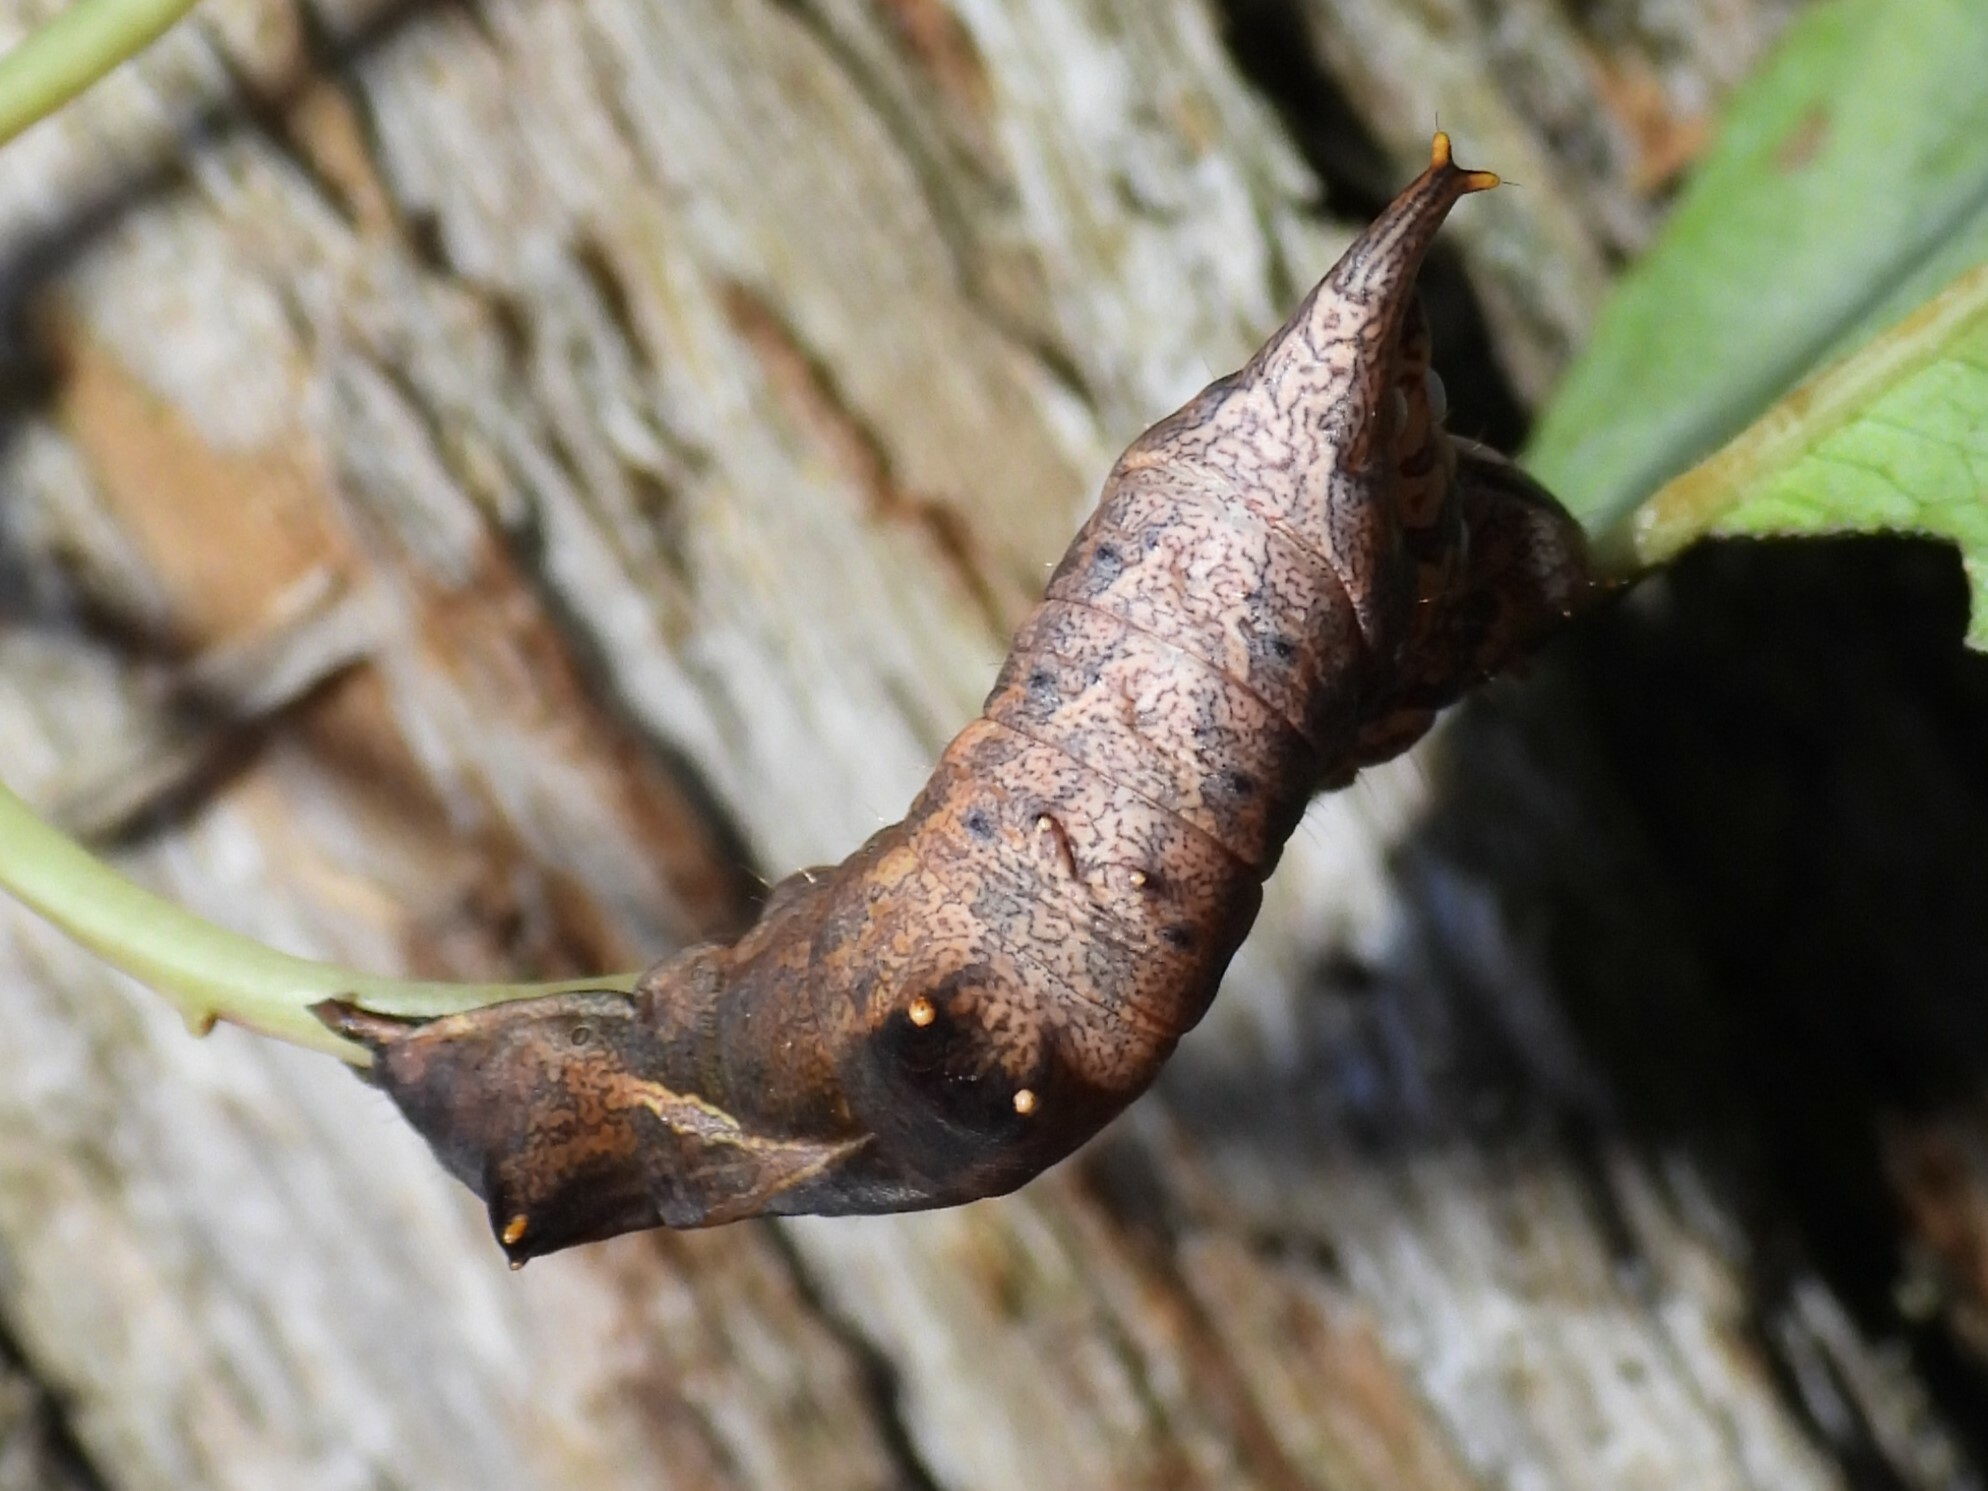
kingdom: Animalia
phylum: Arthropoda
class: Insecta
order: Lepidoptera
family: Notodontidae
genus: Schizura
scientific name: Schizura
